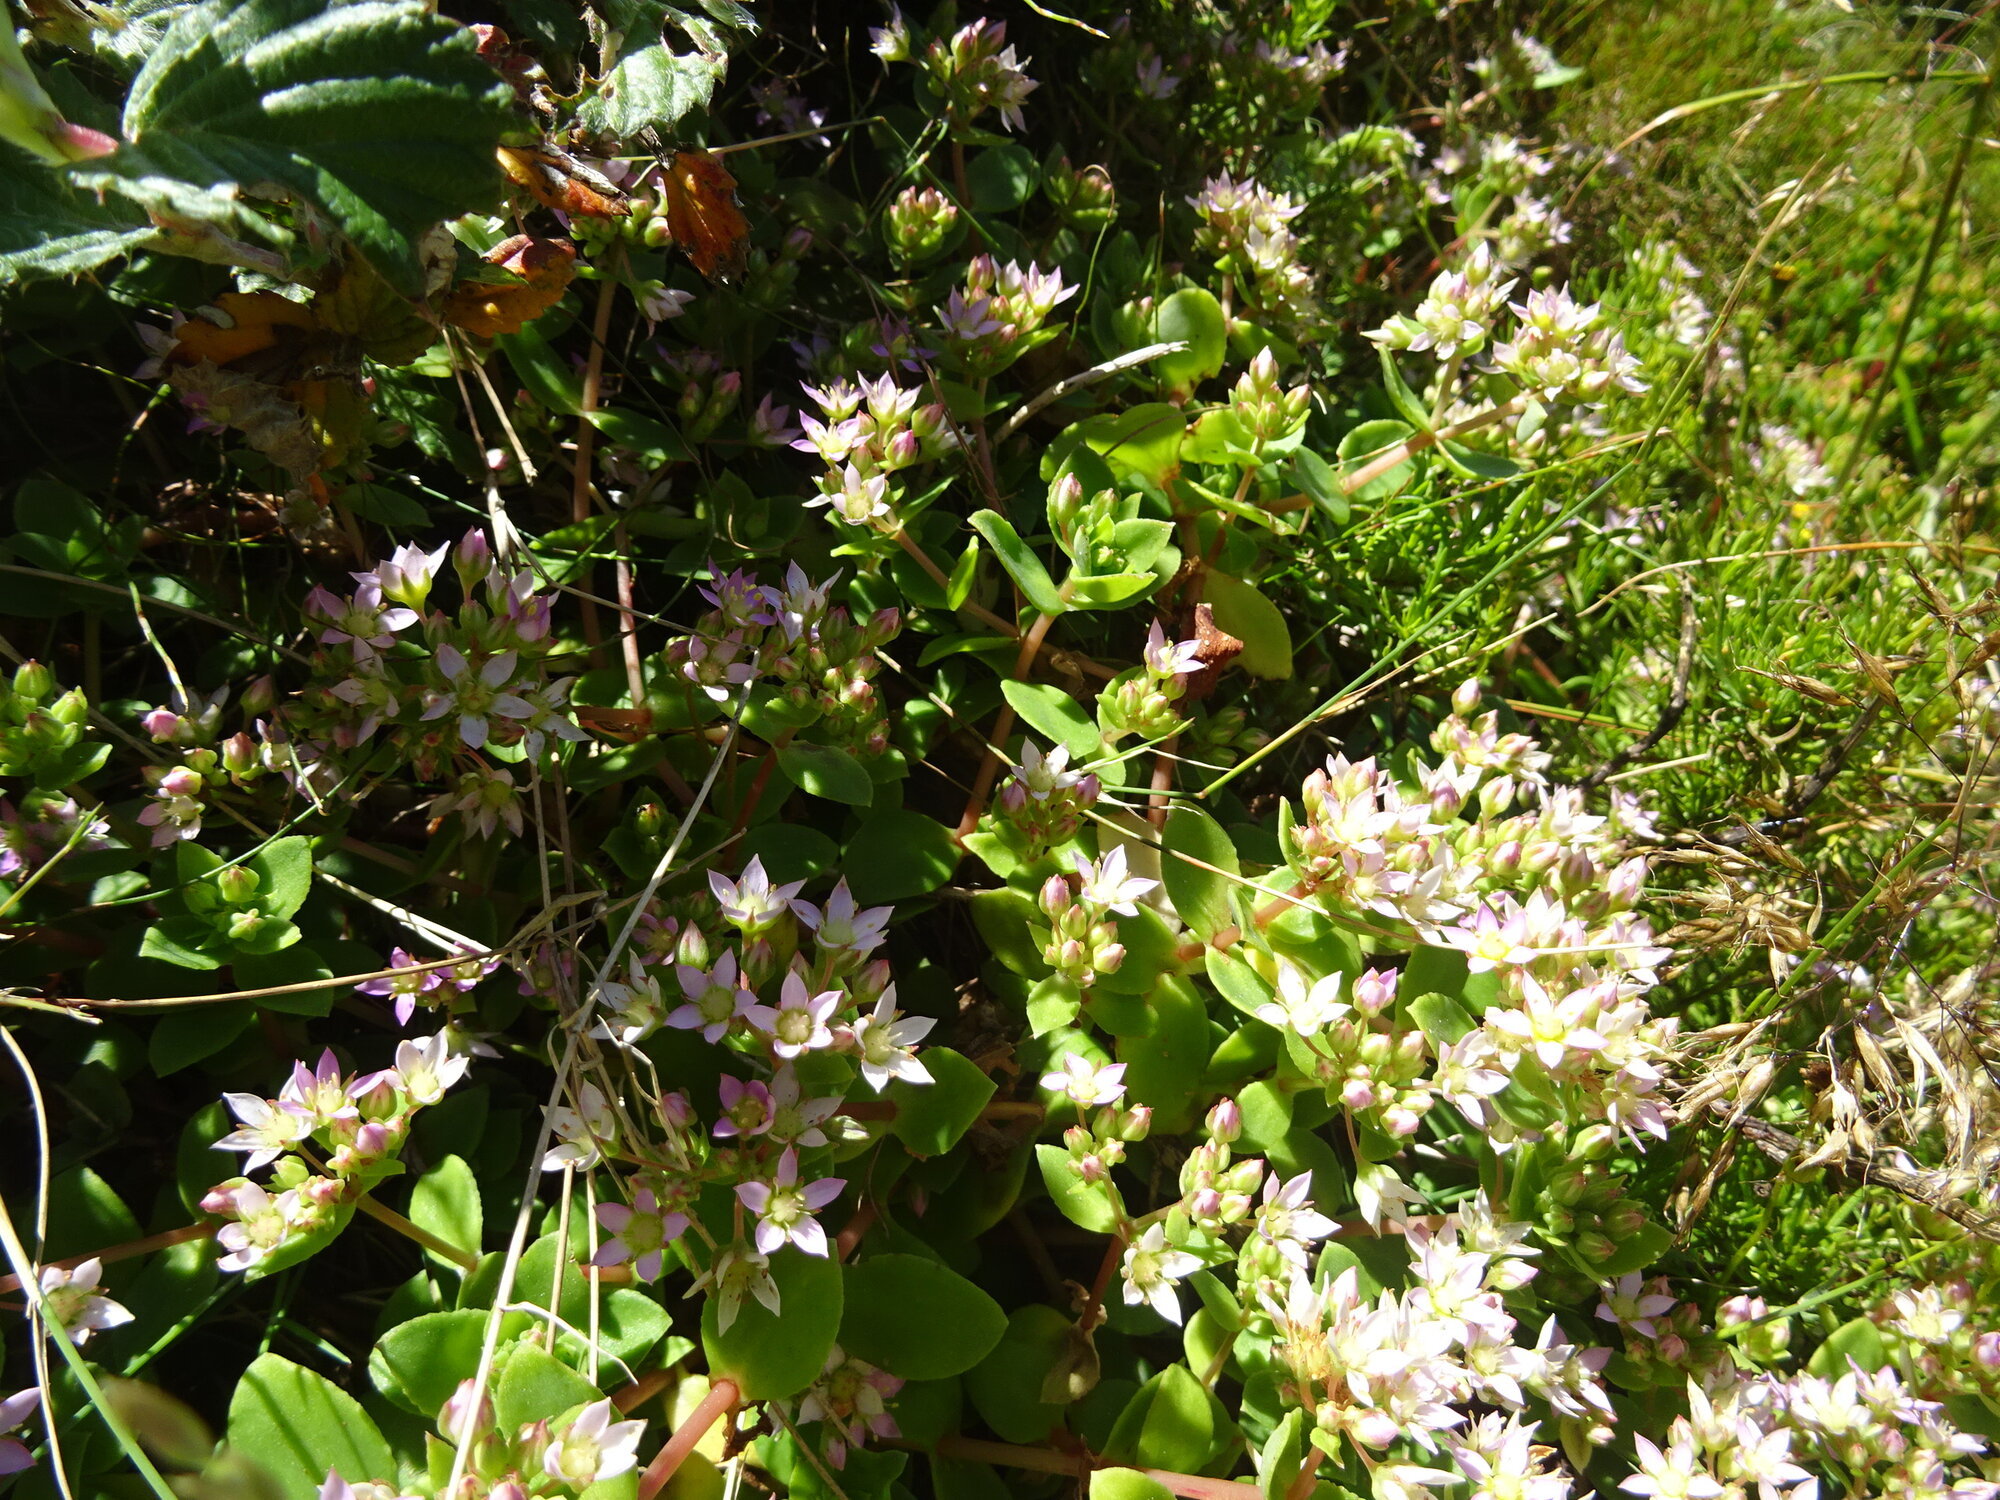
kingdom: Plantae
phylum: Tracheophyta
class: Magnoliopsida
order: Saxifragales
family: Crassulaceae
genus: Crassula
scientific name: Crassula pellucida
